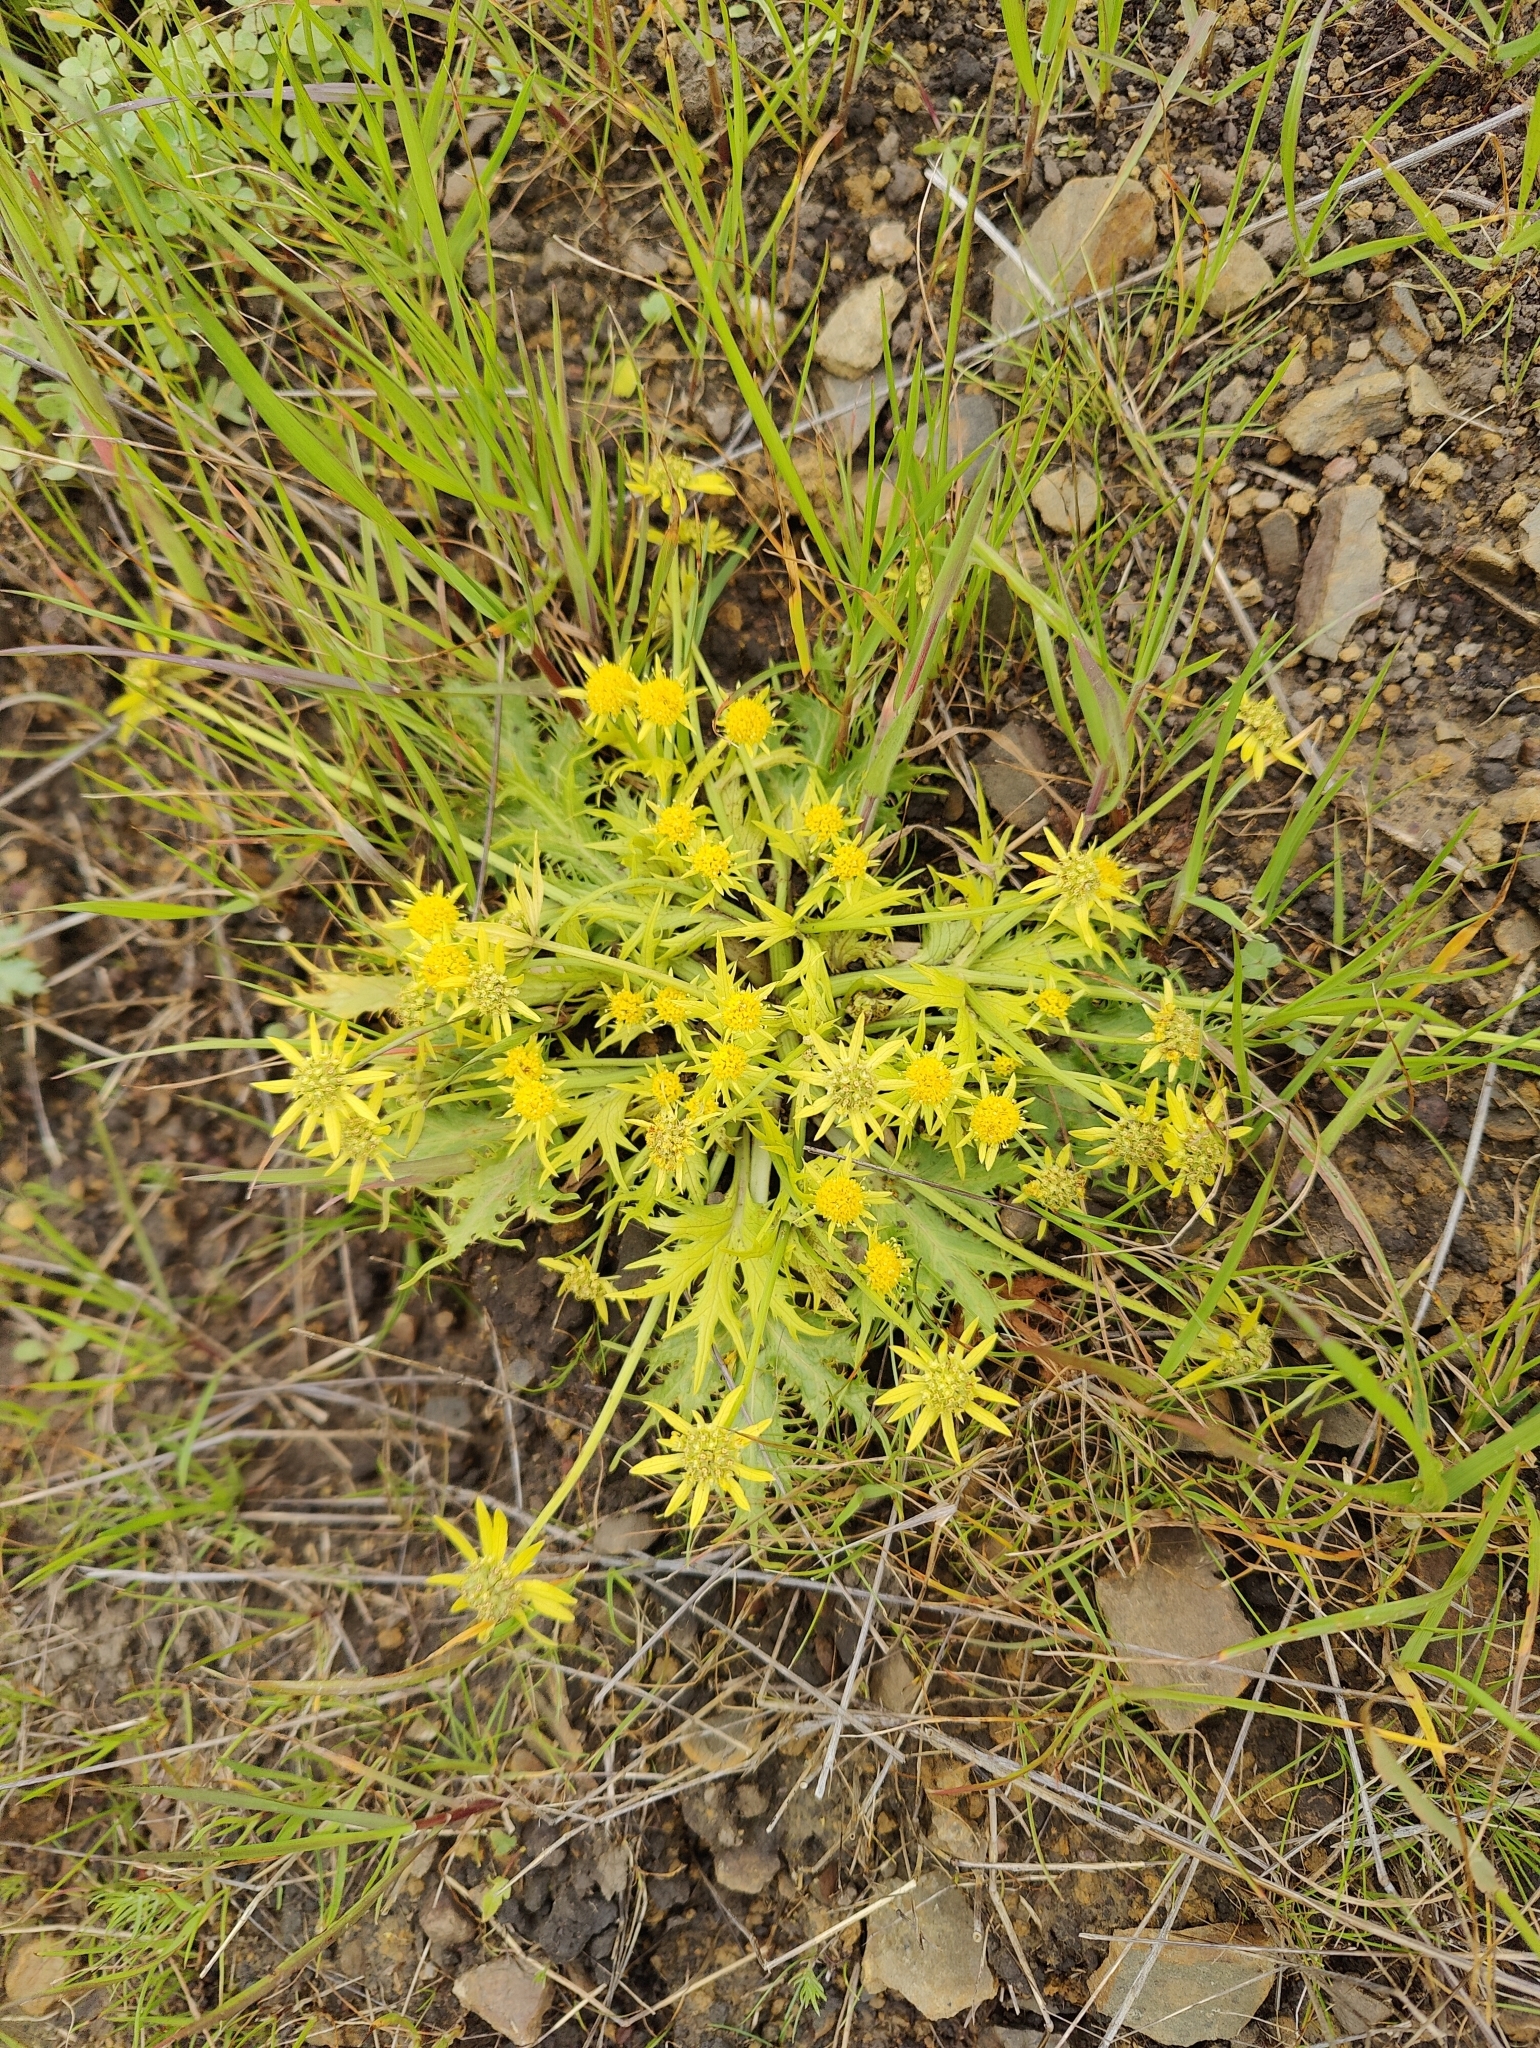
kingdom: Plantae
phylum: Tracheophyta
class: Magnoliopsida
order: Apiales
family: Apiaceae
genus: Sanicula
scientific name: Sanicula arctopoides
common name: Footsteps-of-spring
